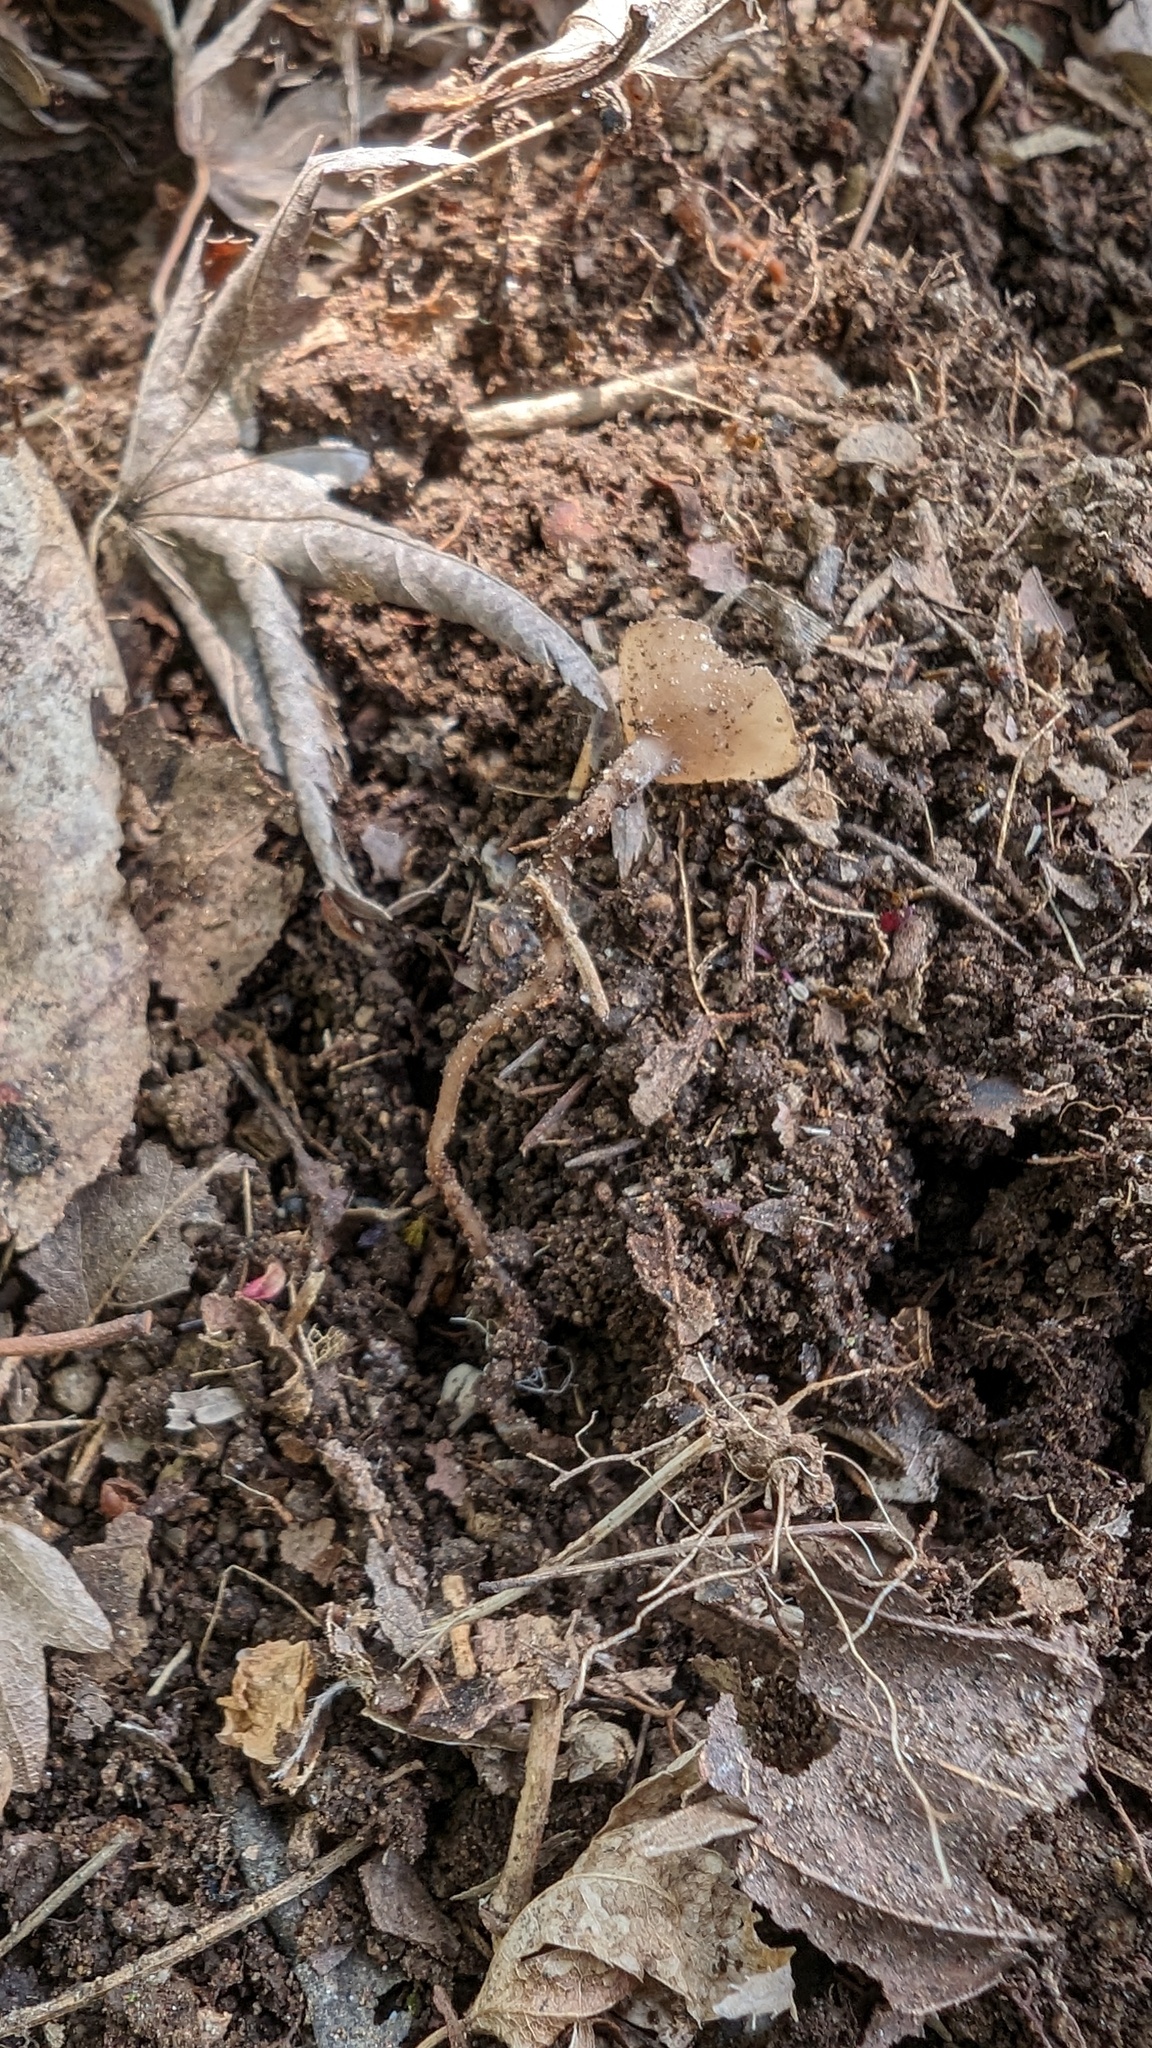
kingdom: Fungi
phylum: Ascomycota
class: Leotiomycetes
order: Helotiales
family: Sclerotiniaceae
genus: Ciborinia
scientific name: Ciborinia camelliae
